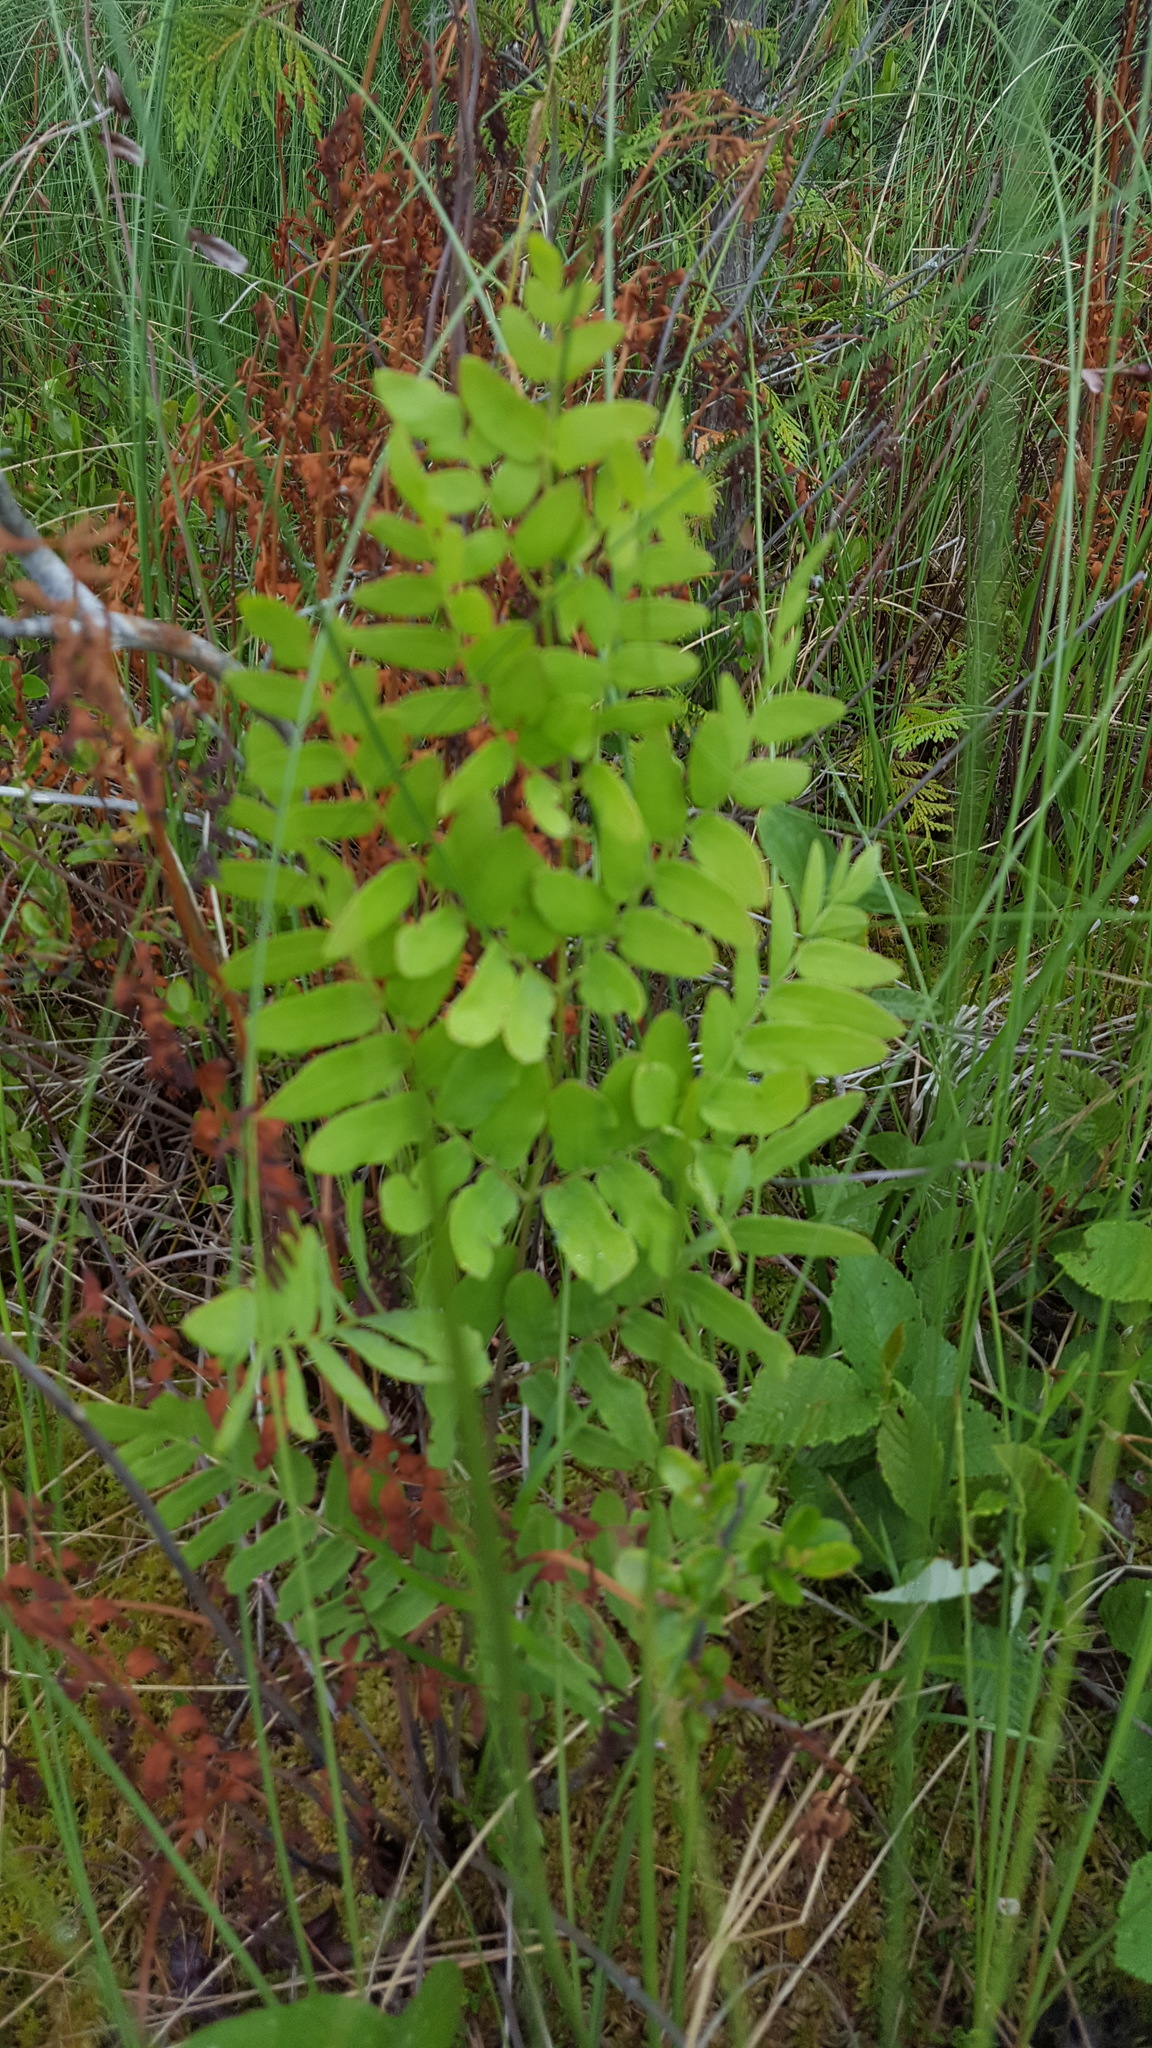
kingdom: Plantae
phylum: Tracheophyta
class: Polypodiopsida
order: Osmundales
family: Osmundaceae
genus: Osmunda
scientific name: Osmunda spectabilis
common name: American royal fern
